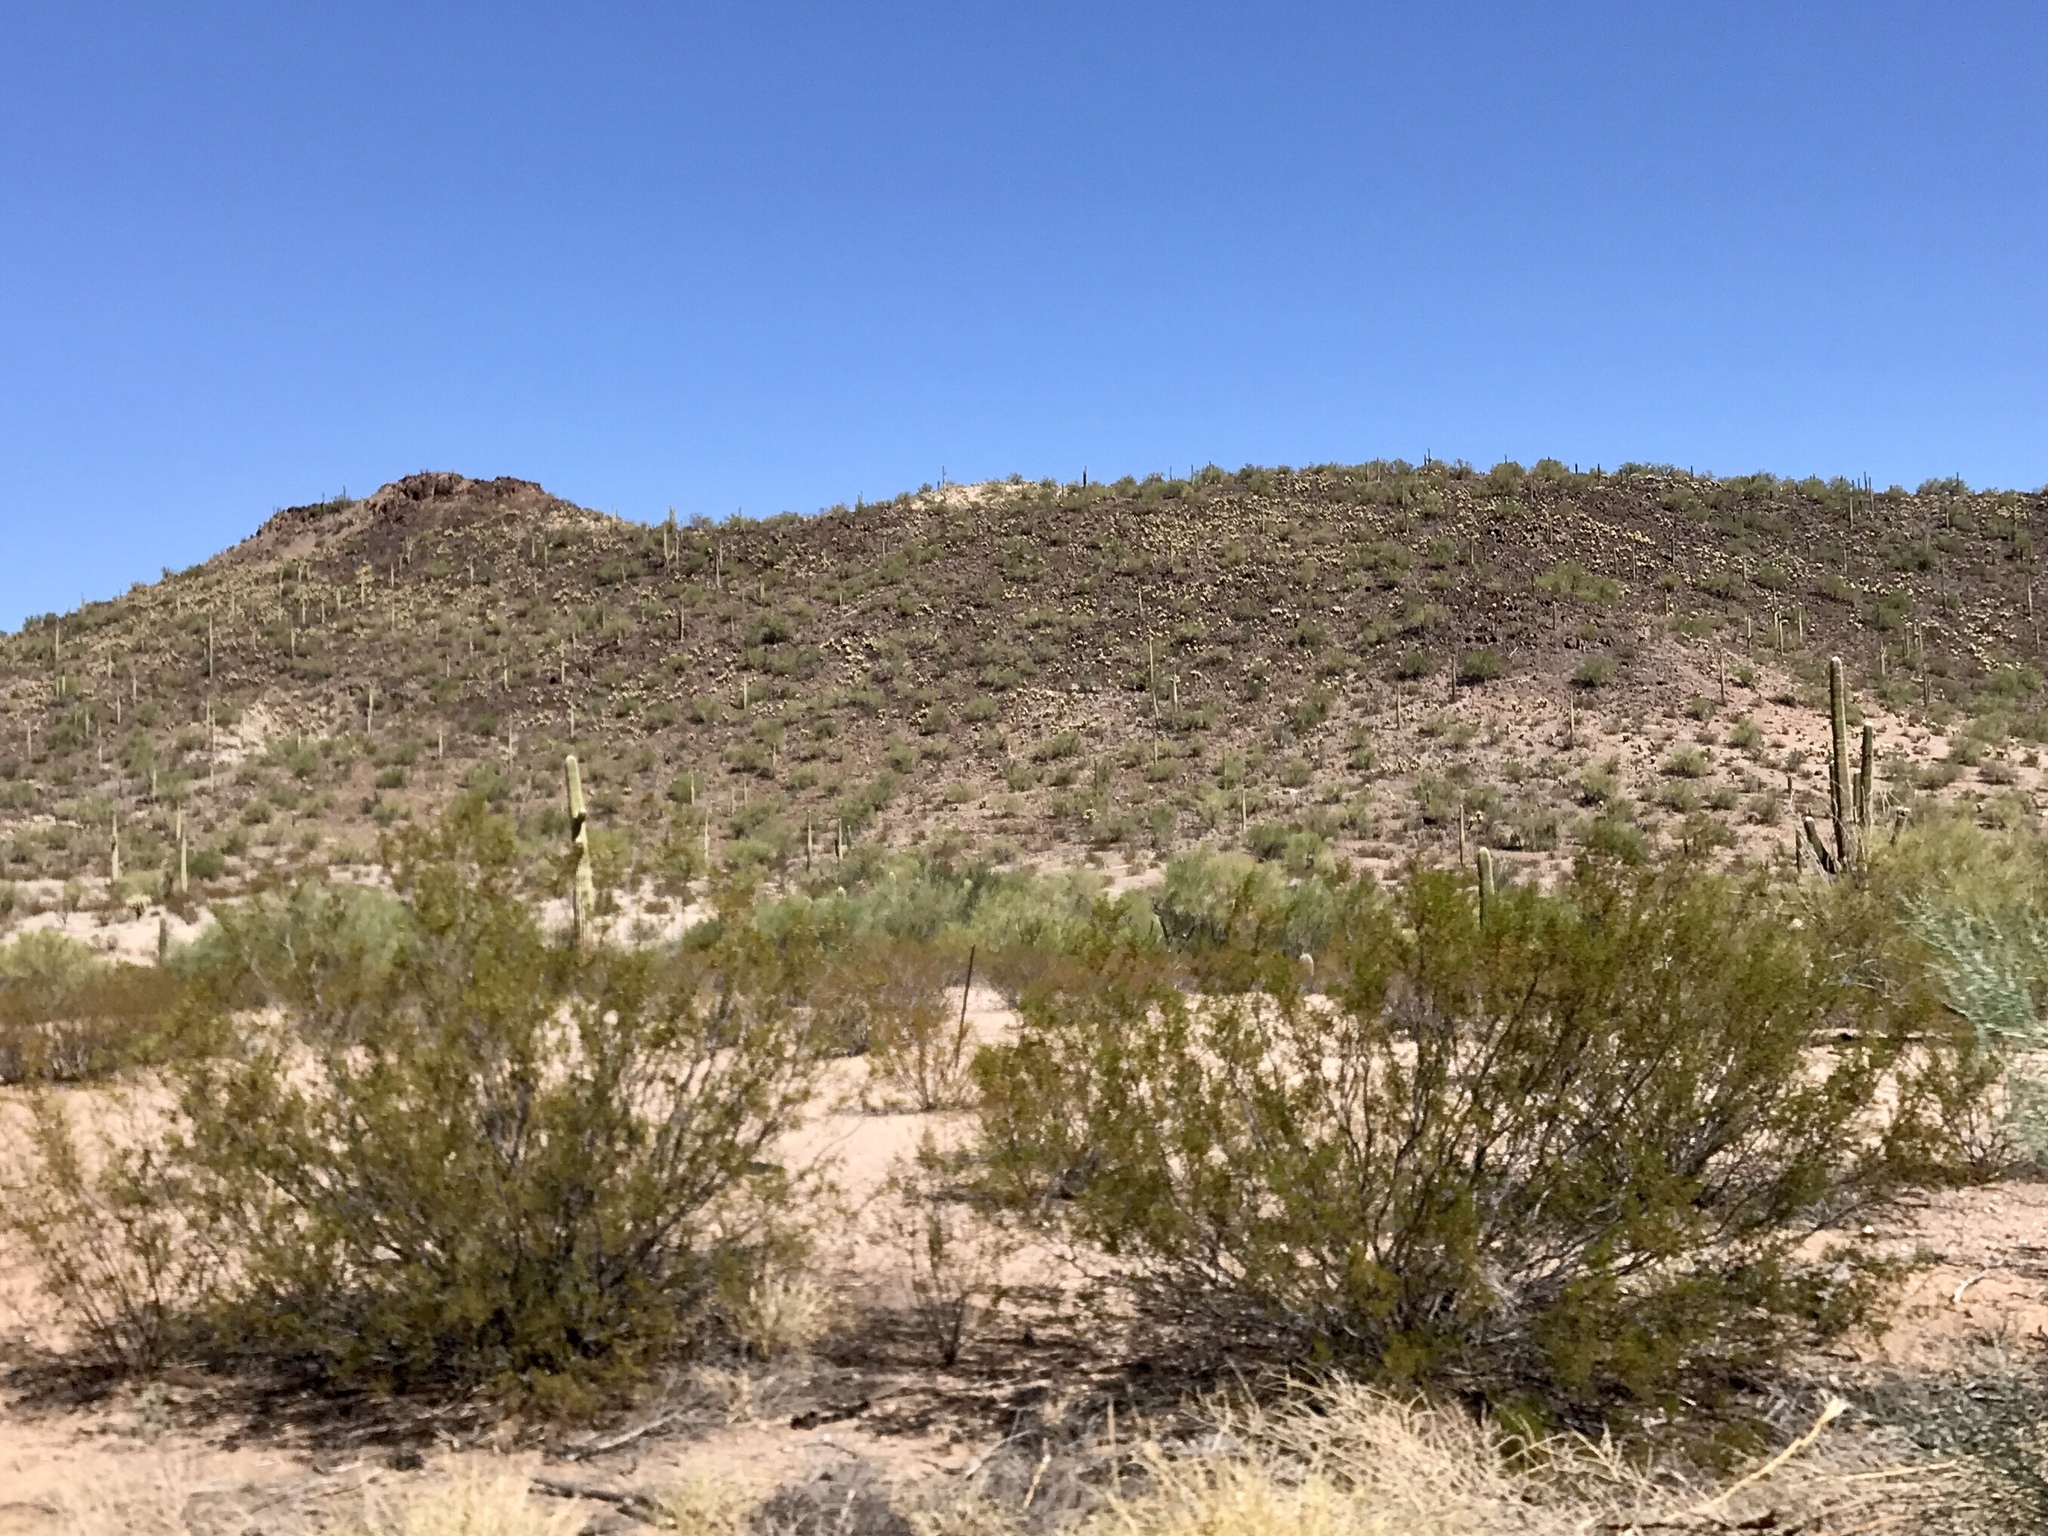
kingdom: Plantae
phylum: Tracheophyta
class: Magnoliopsida
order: Zygophyllales
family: Zygophyllaceae
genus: Larrea
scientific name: Larrea tridentata
